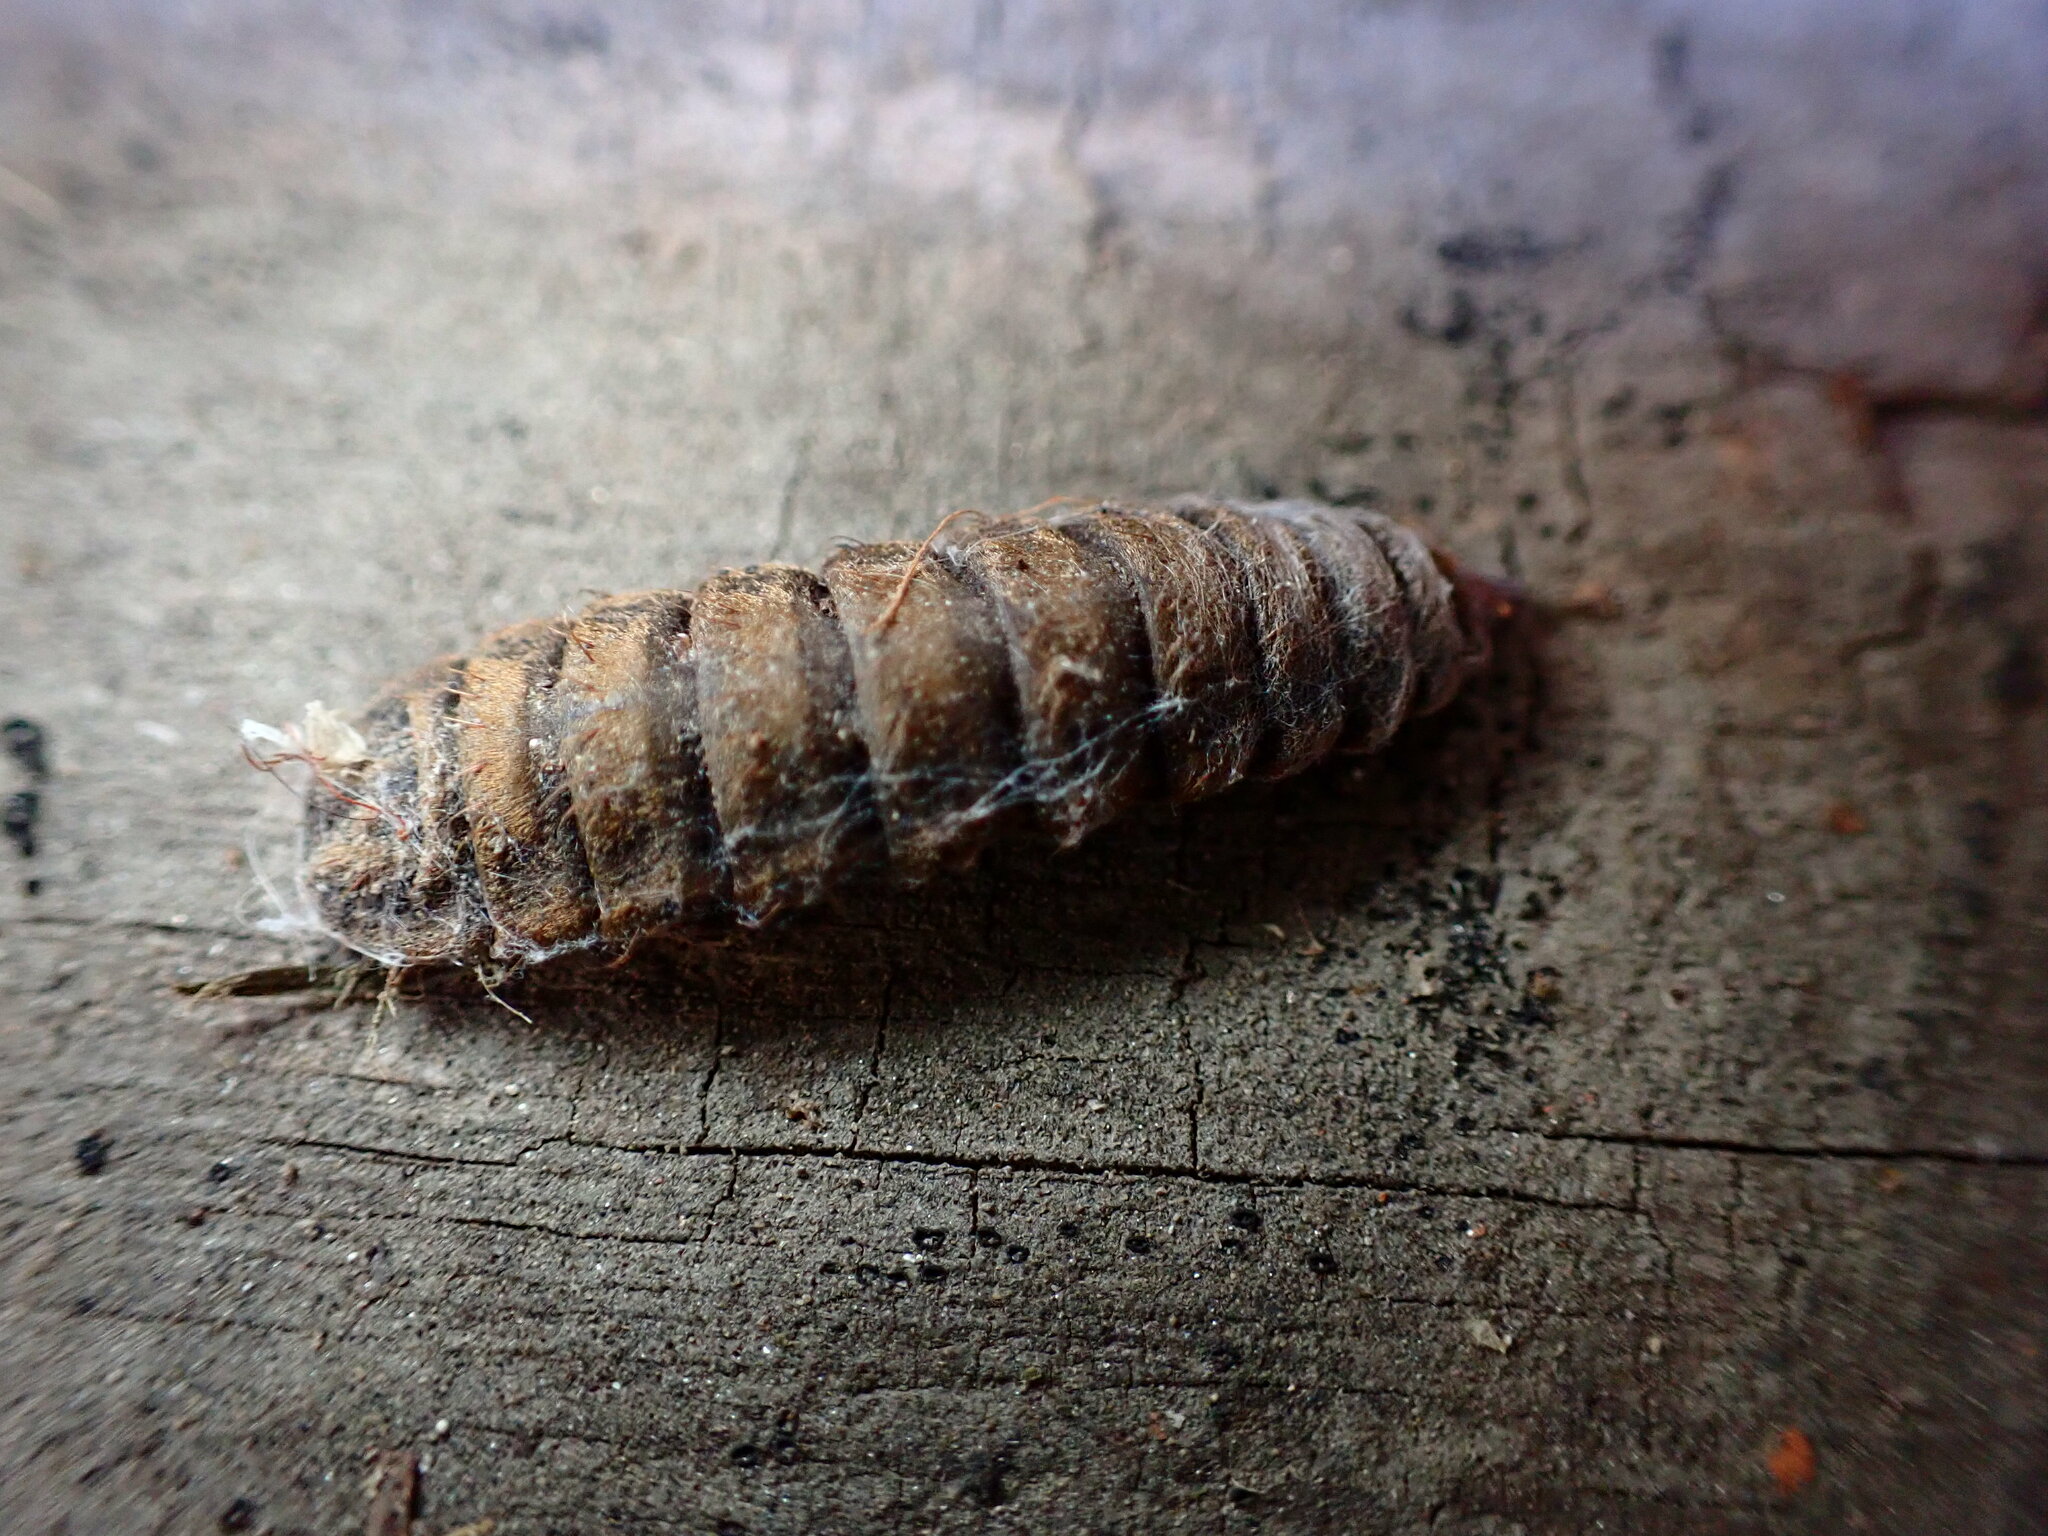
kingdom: Animalia
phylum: Arthropoda
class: Insecta
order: Diptera
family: Stratiomyidae
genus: Hermetia
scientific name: Hermetia illucens
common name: Black soldier fly
